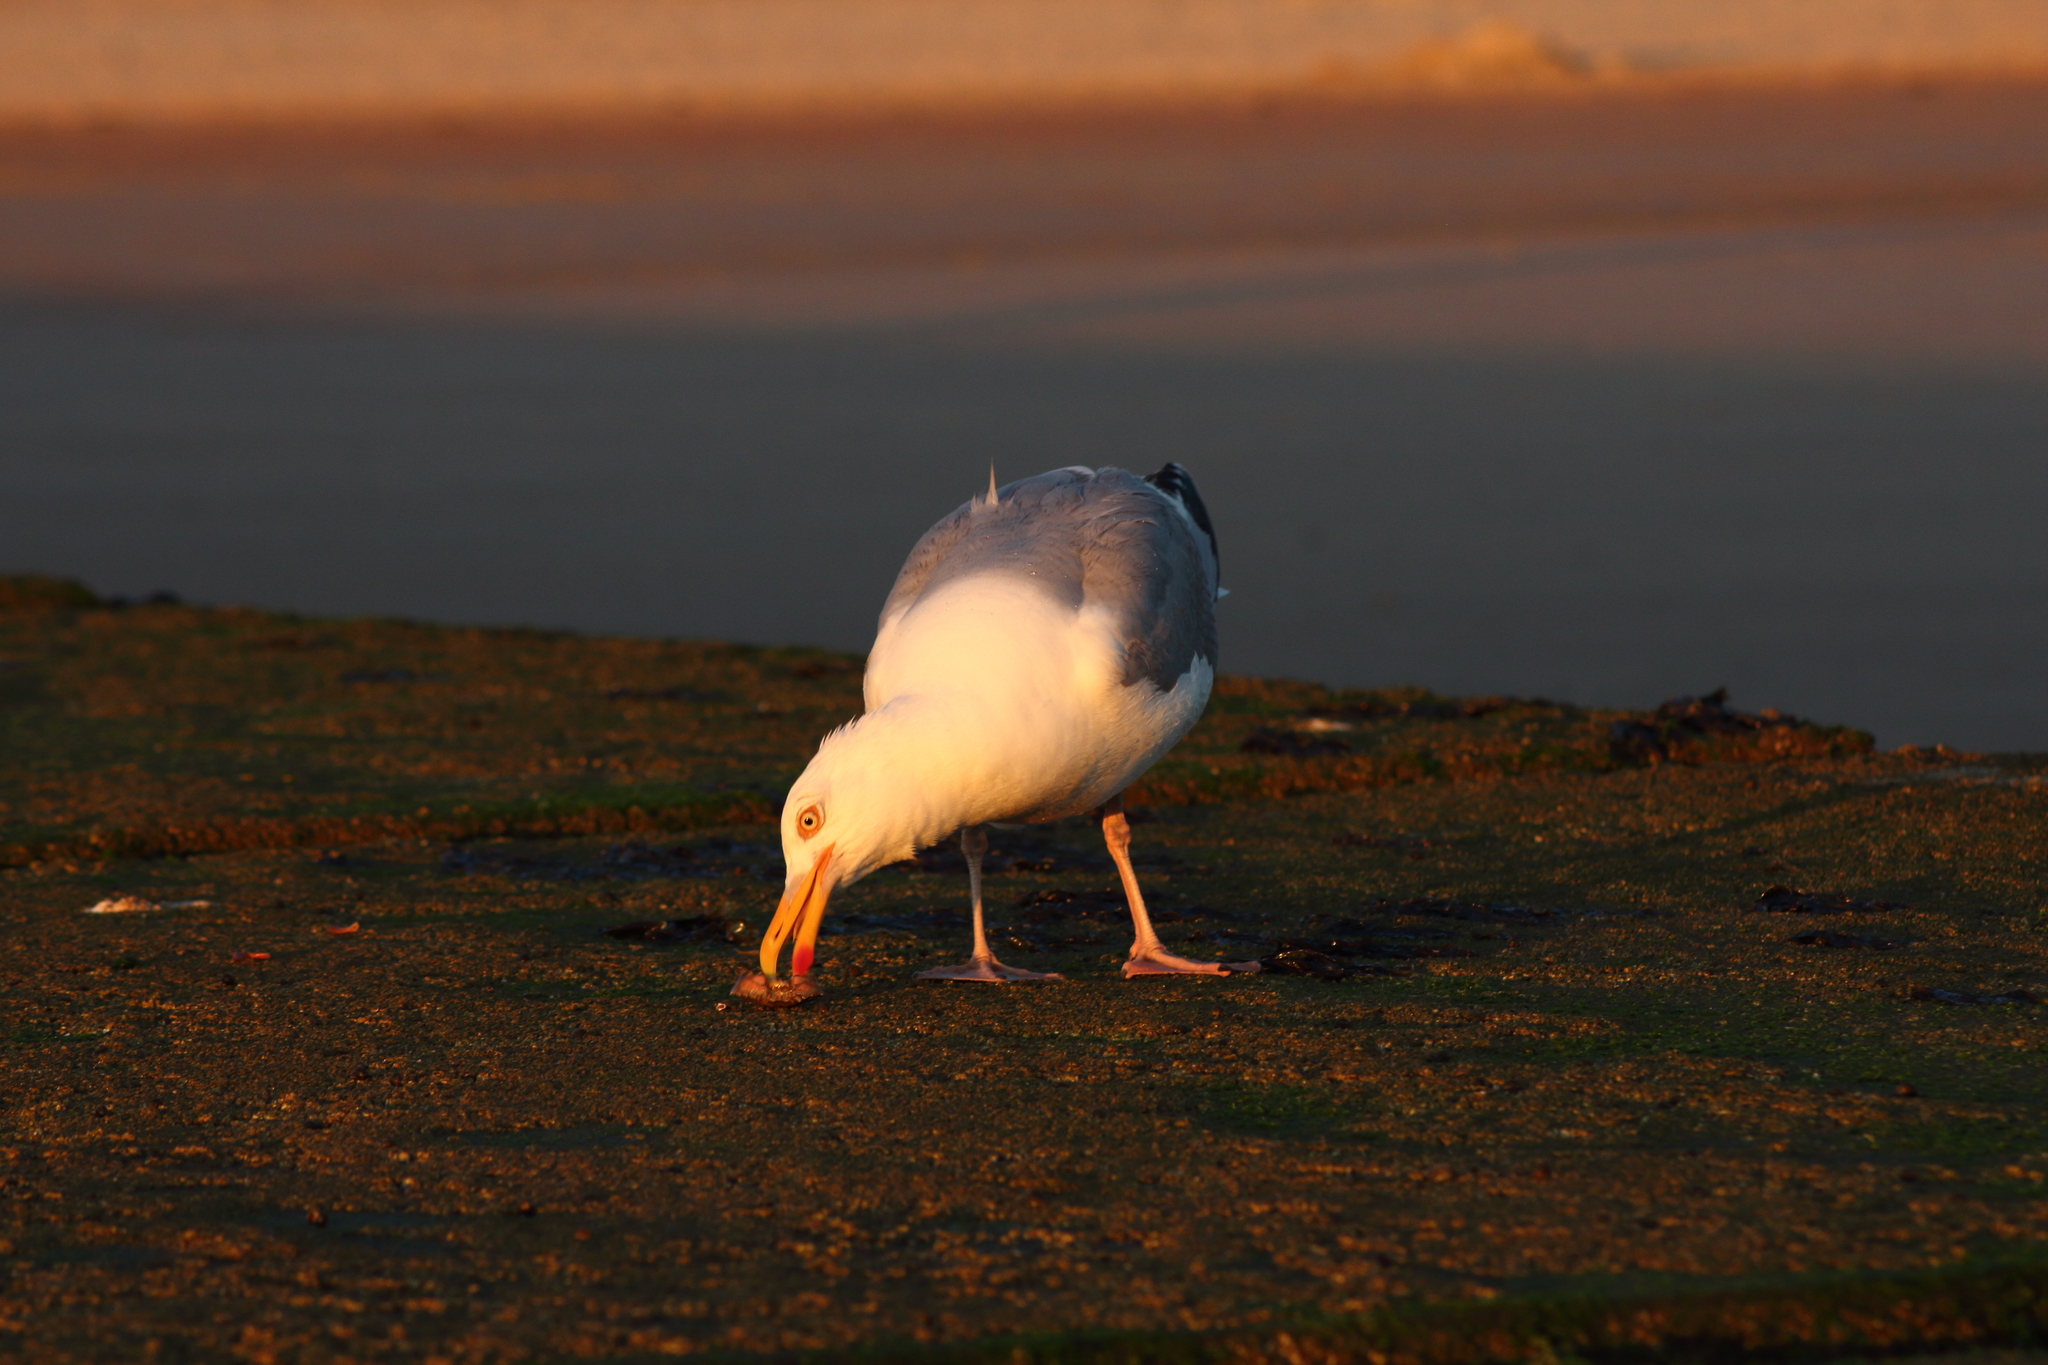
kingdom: Animalia
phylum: Chordata
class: Aves
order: Charadriiformes
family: Laridae
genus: Larus
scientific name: Larus argentatus
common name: Herring gull
